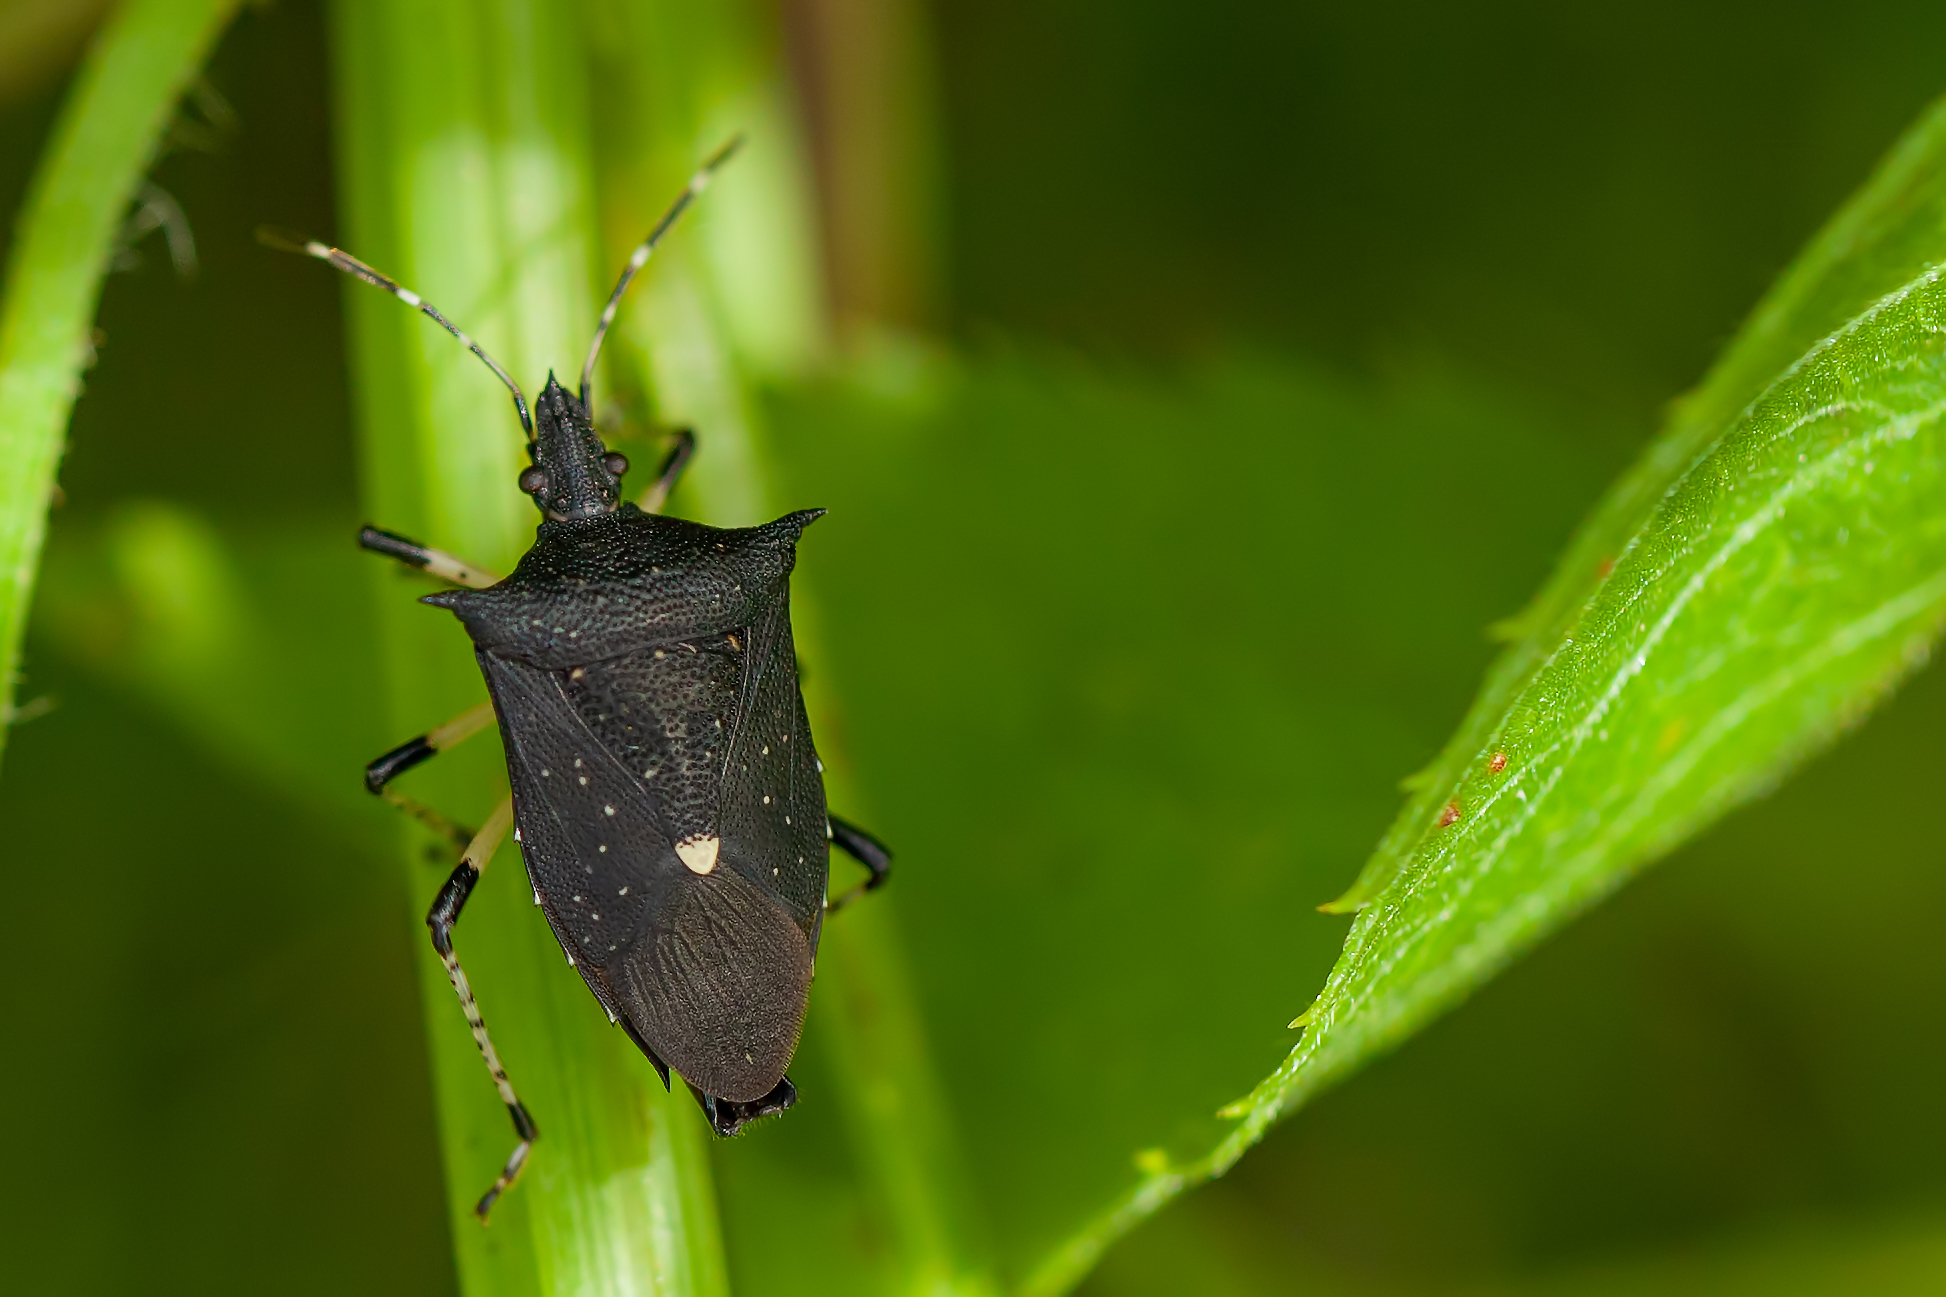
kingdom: Animalia
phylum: Arthropoda
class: Insecta
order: Hemiptera
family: Pentatomidae
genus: Proxys
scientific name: Proxys punctulatus
